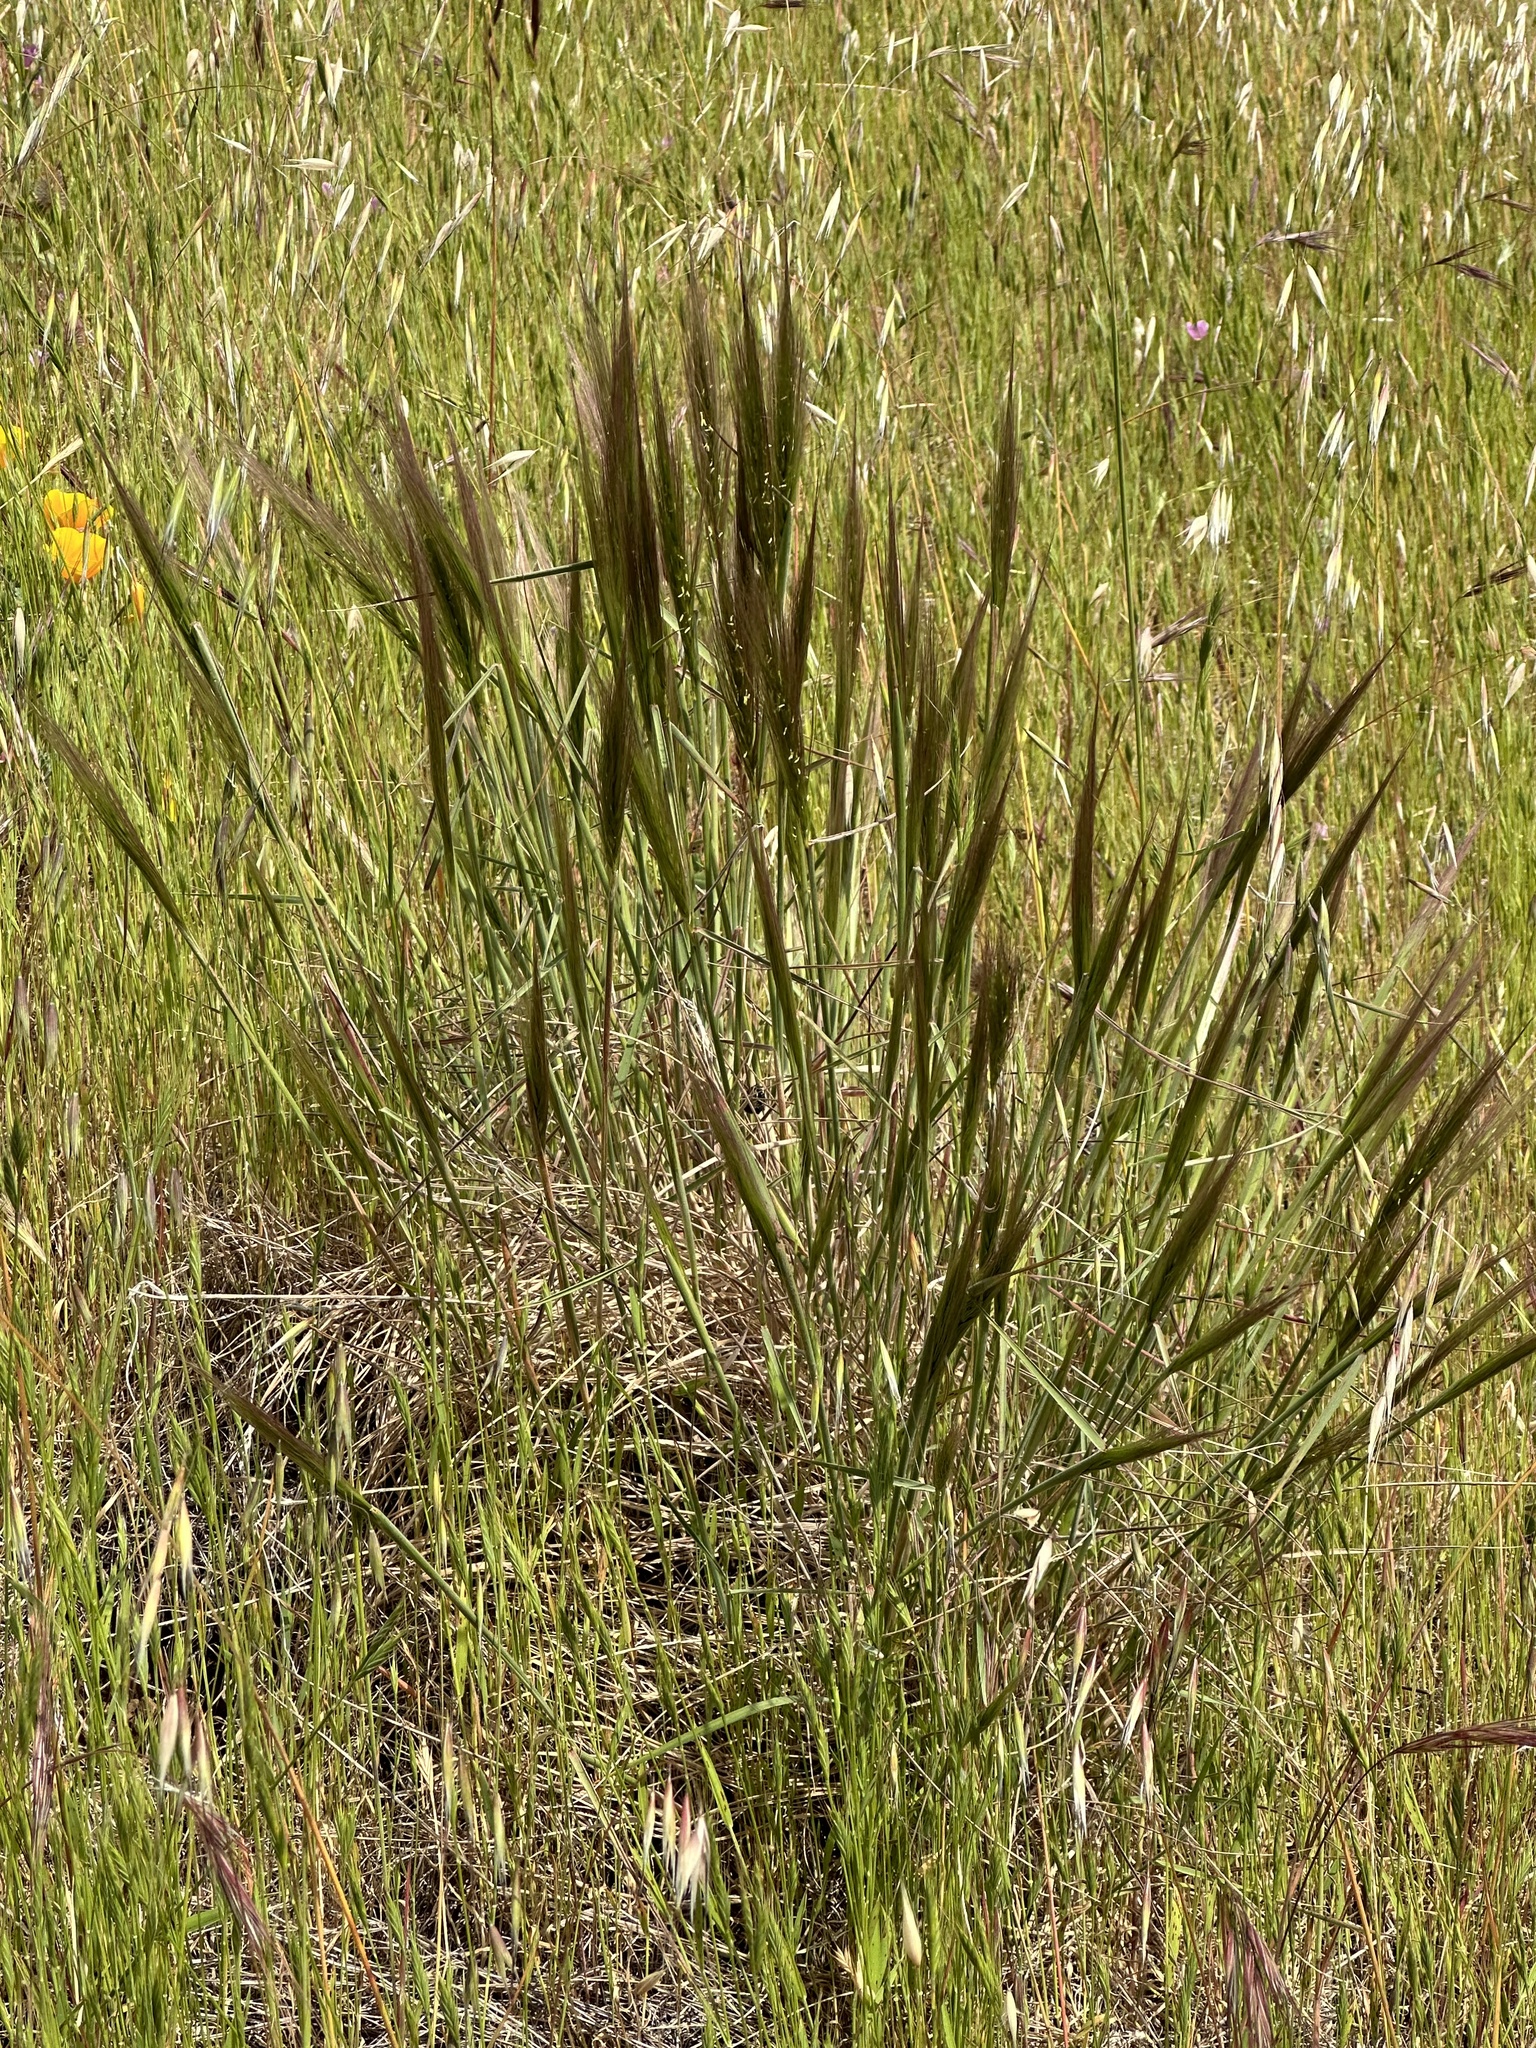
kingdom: Plantae
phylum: Tracheophyta
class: Liliopsida
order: Poales
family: Poaceae
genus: Elymus
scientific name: Elymus multisetus
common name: Big squirreltail
